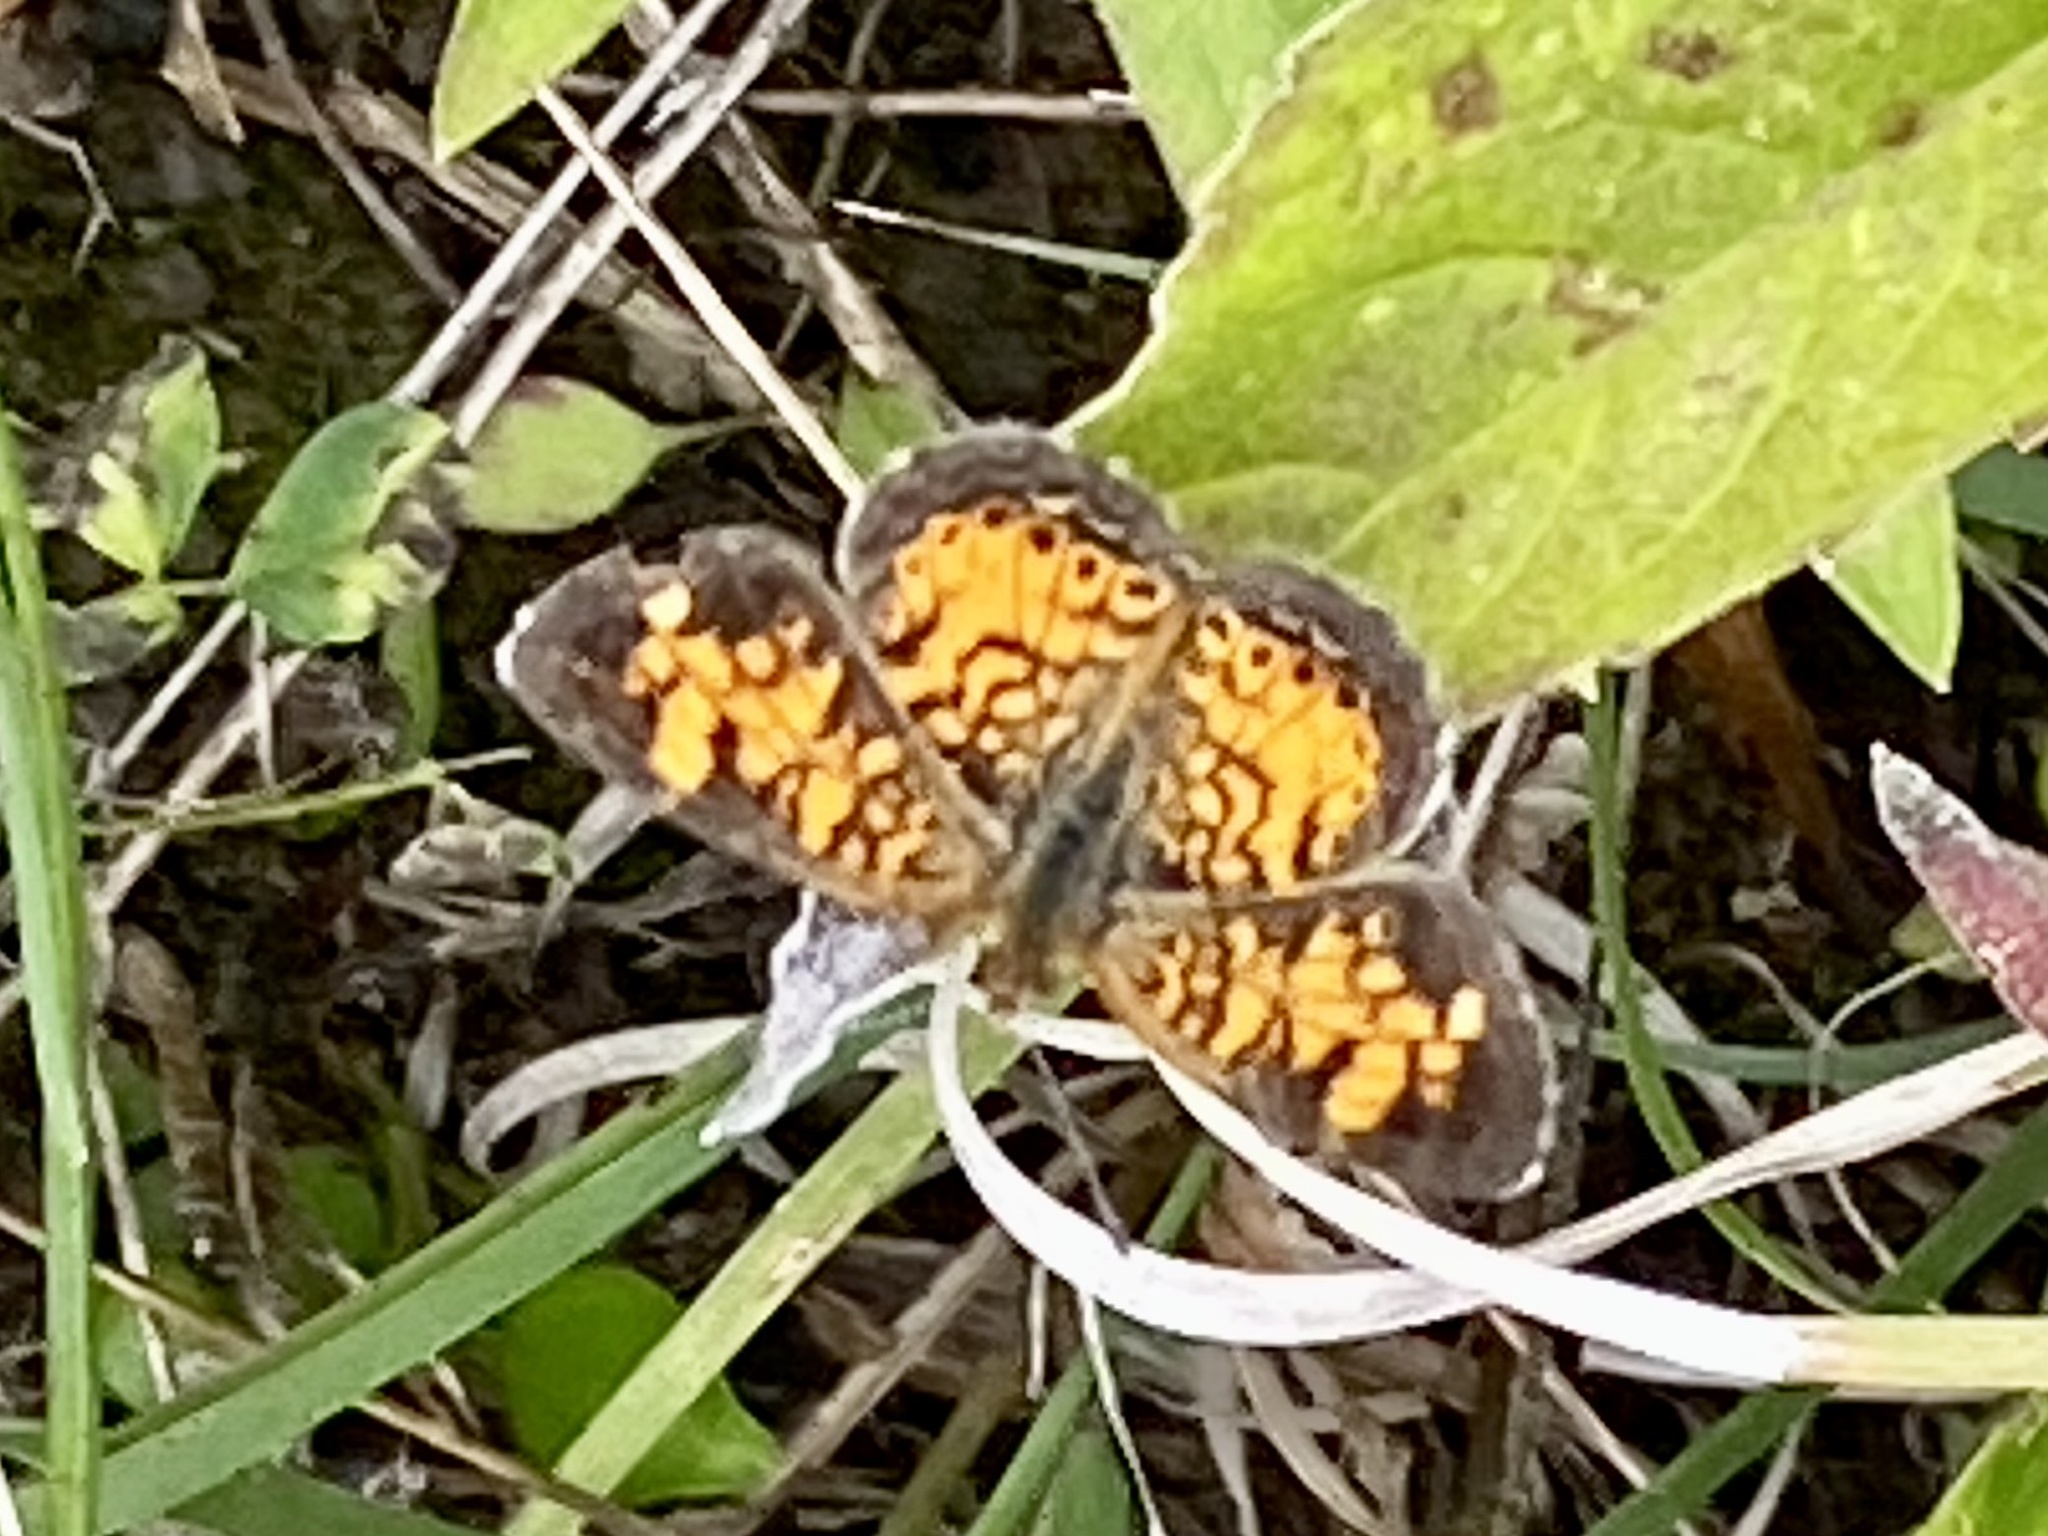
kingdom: Animalia
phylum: Arthropoda
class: Insecta
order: Lepidoptera
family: Nymphalidae
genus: Phyciodes
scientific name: Phyciodes tharos
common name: Pearl crescent
